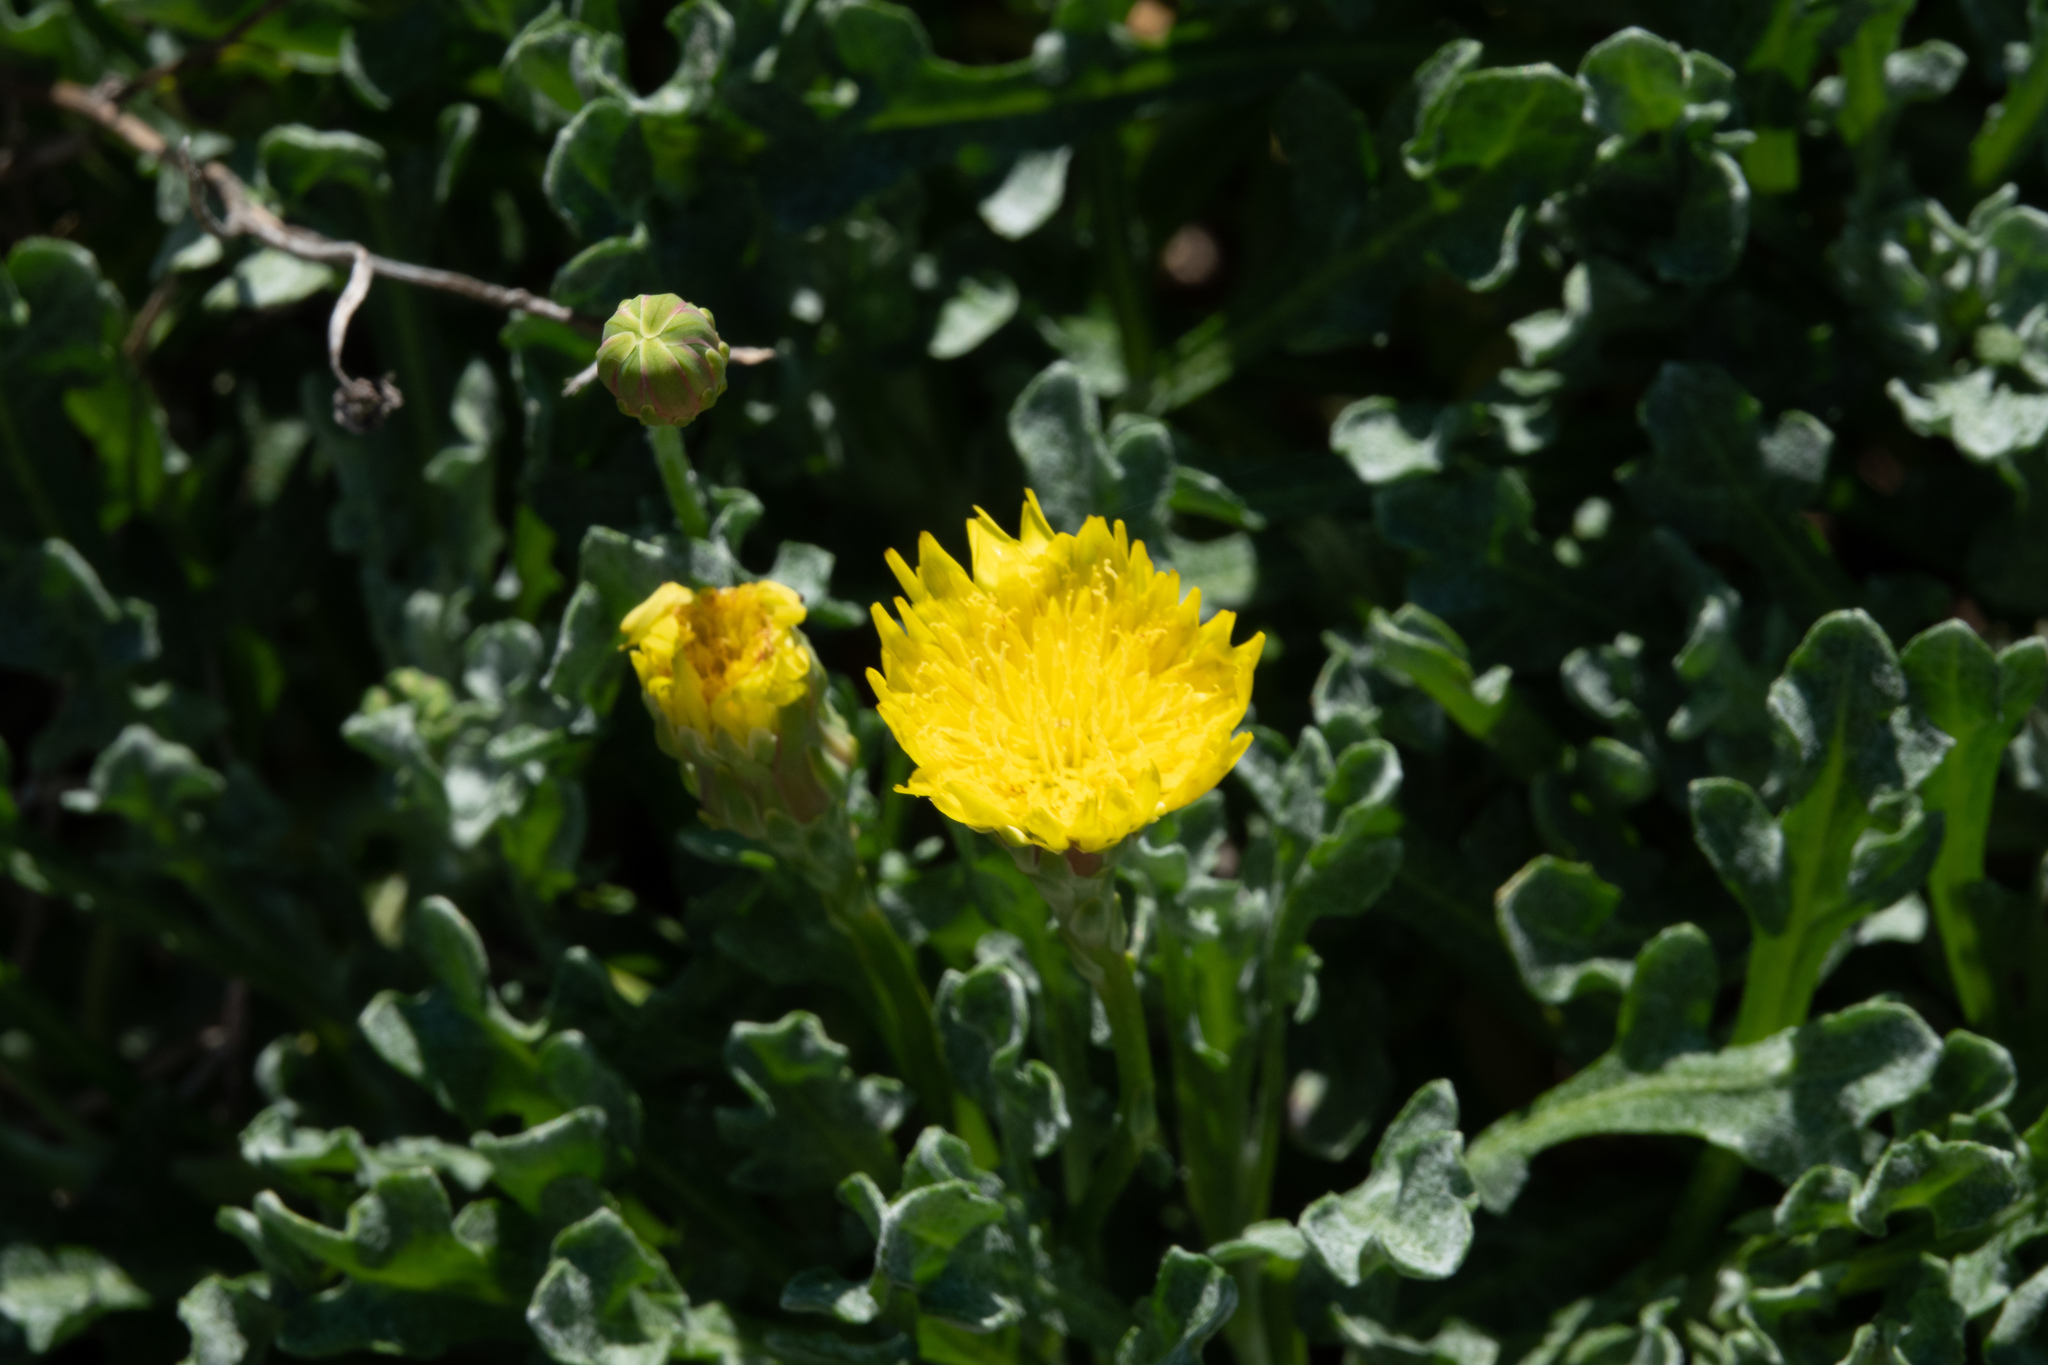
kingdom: Plantae
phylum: Tracheophyta
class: Magnoliopsida
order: Asterales
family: Asteraceae
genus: Malacothrix
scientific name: Malacothrix incana
